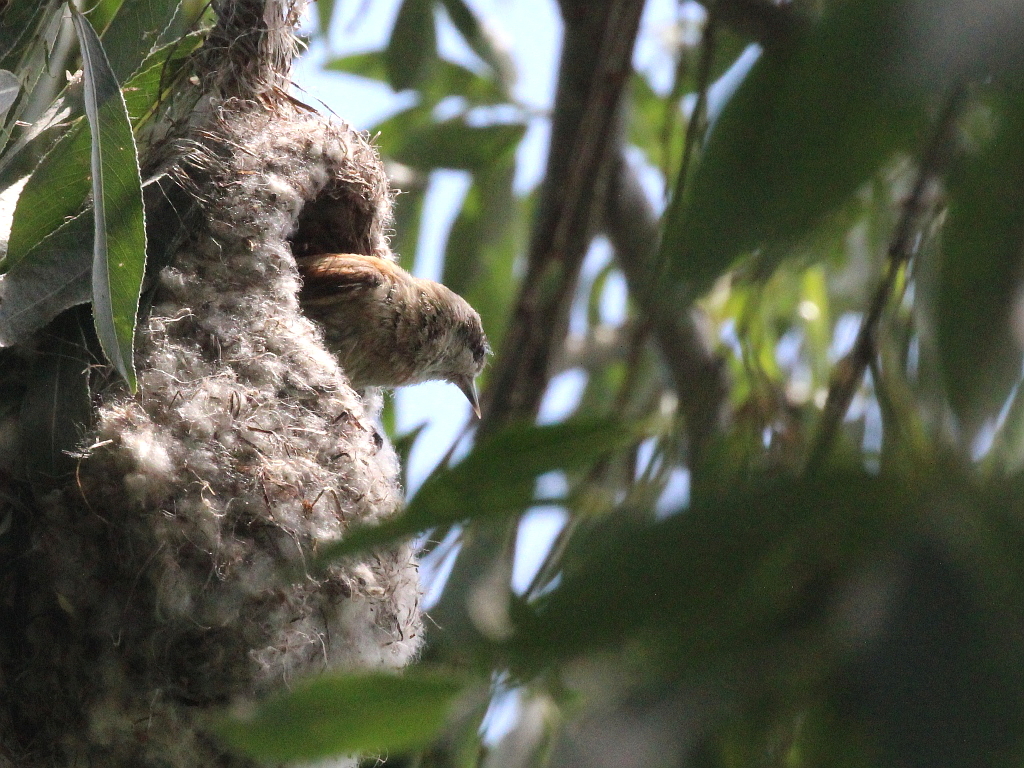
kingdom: Animalia
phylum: Chordata
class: Aves
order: Passeriformes
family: Remizidae
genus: Remiz
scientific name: Remiz pendulinus
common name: Eurasian penduline tit
